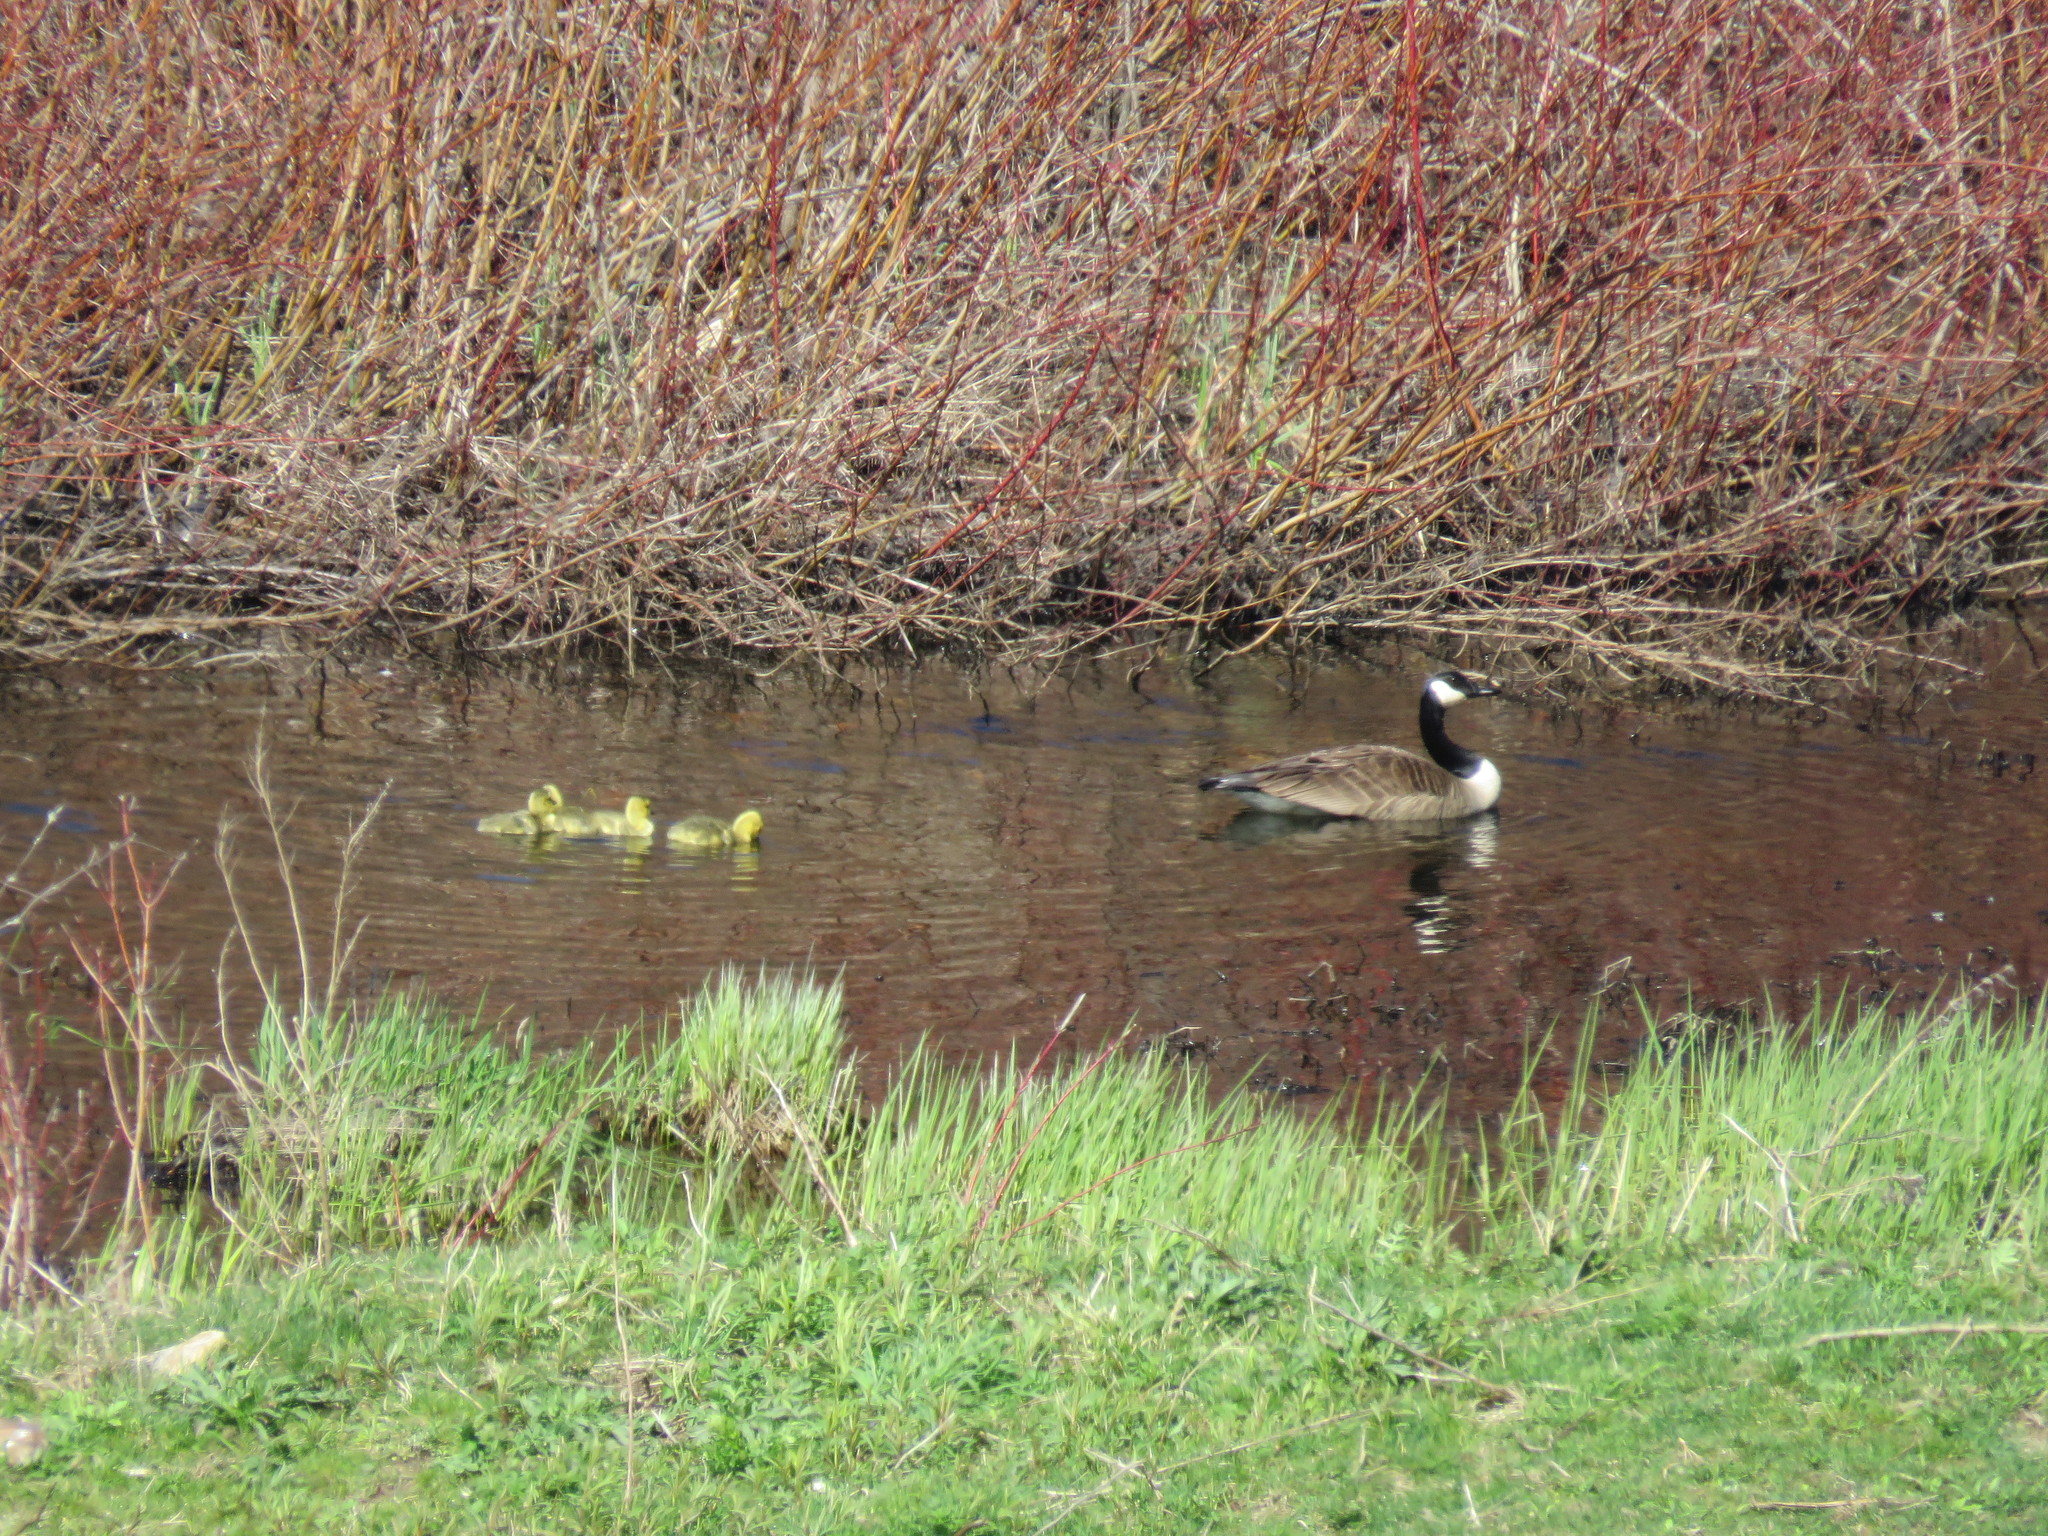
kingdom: Animalia
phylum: Chordata
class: Aves
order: Anseriformes
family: Anatidae
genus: Branta
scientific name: Branta canadensis
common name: Canada goose
